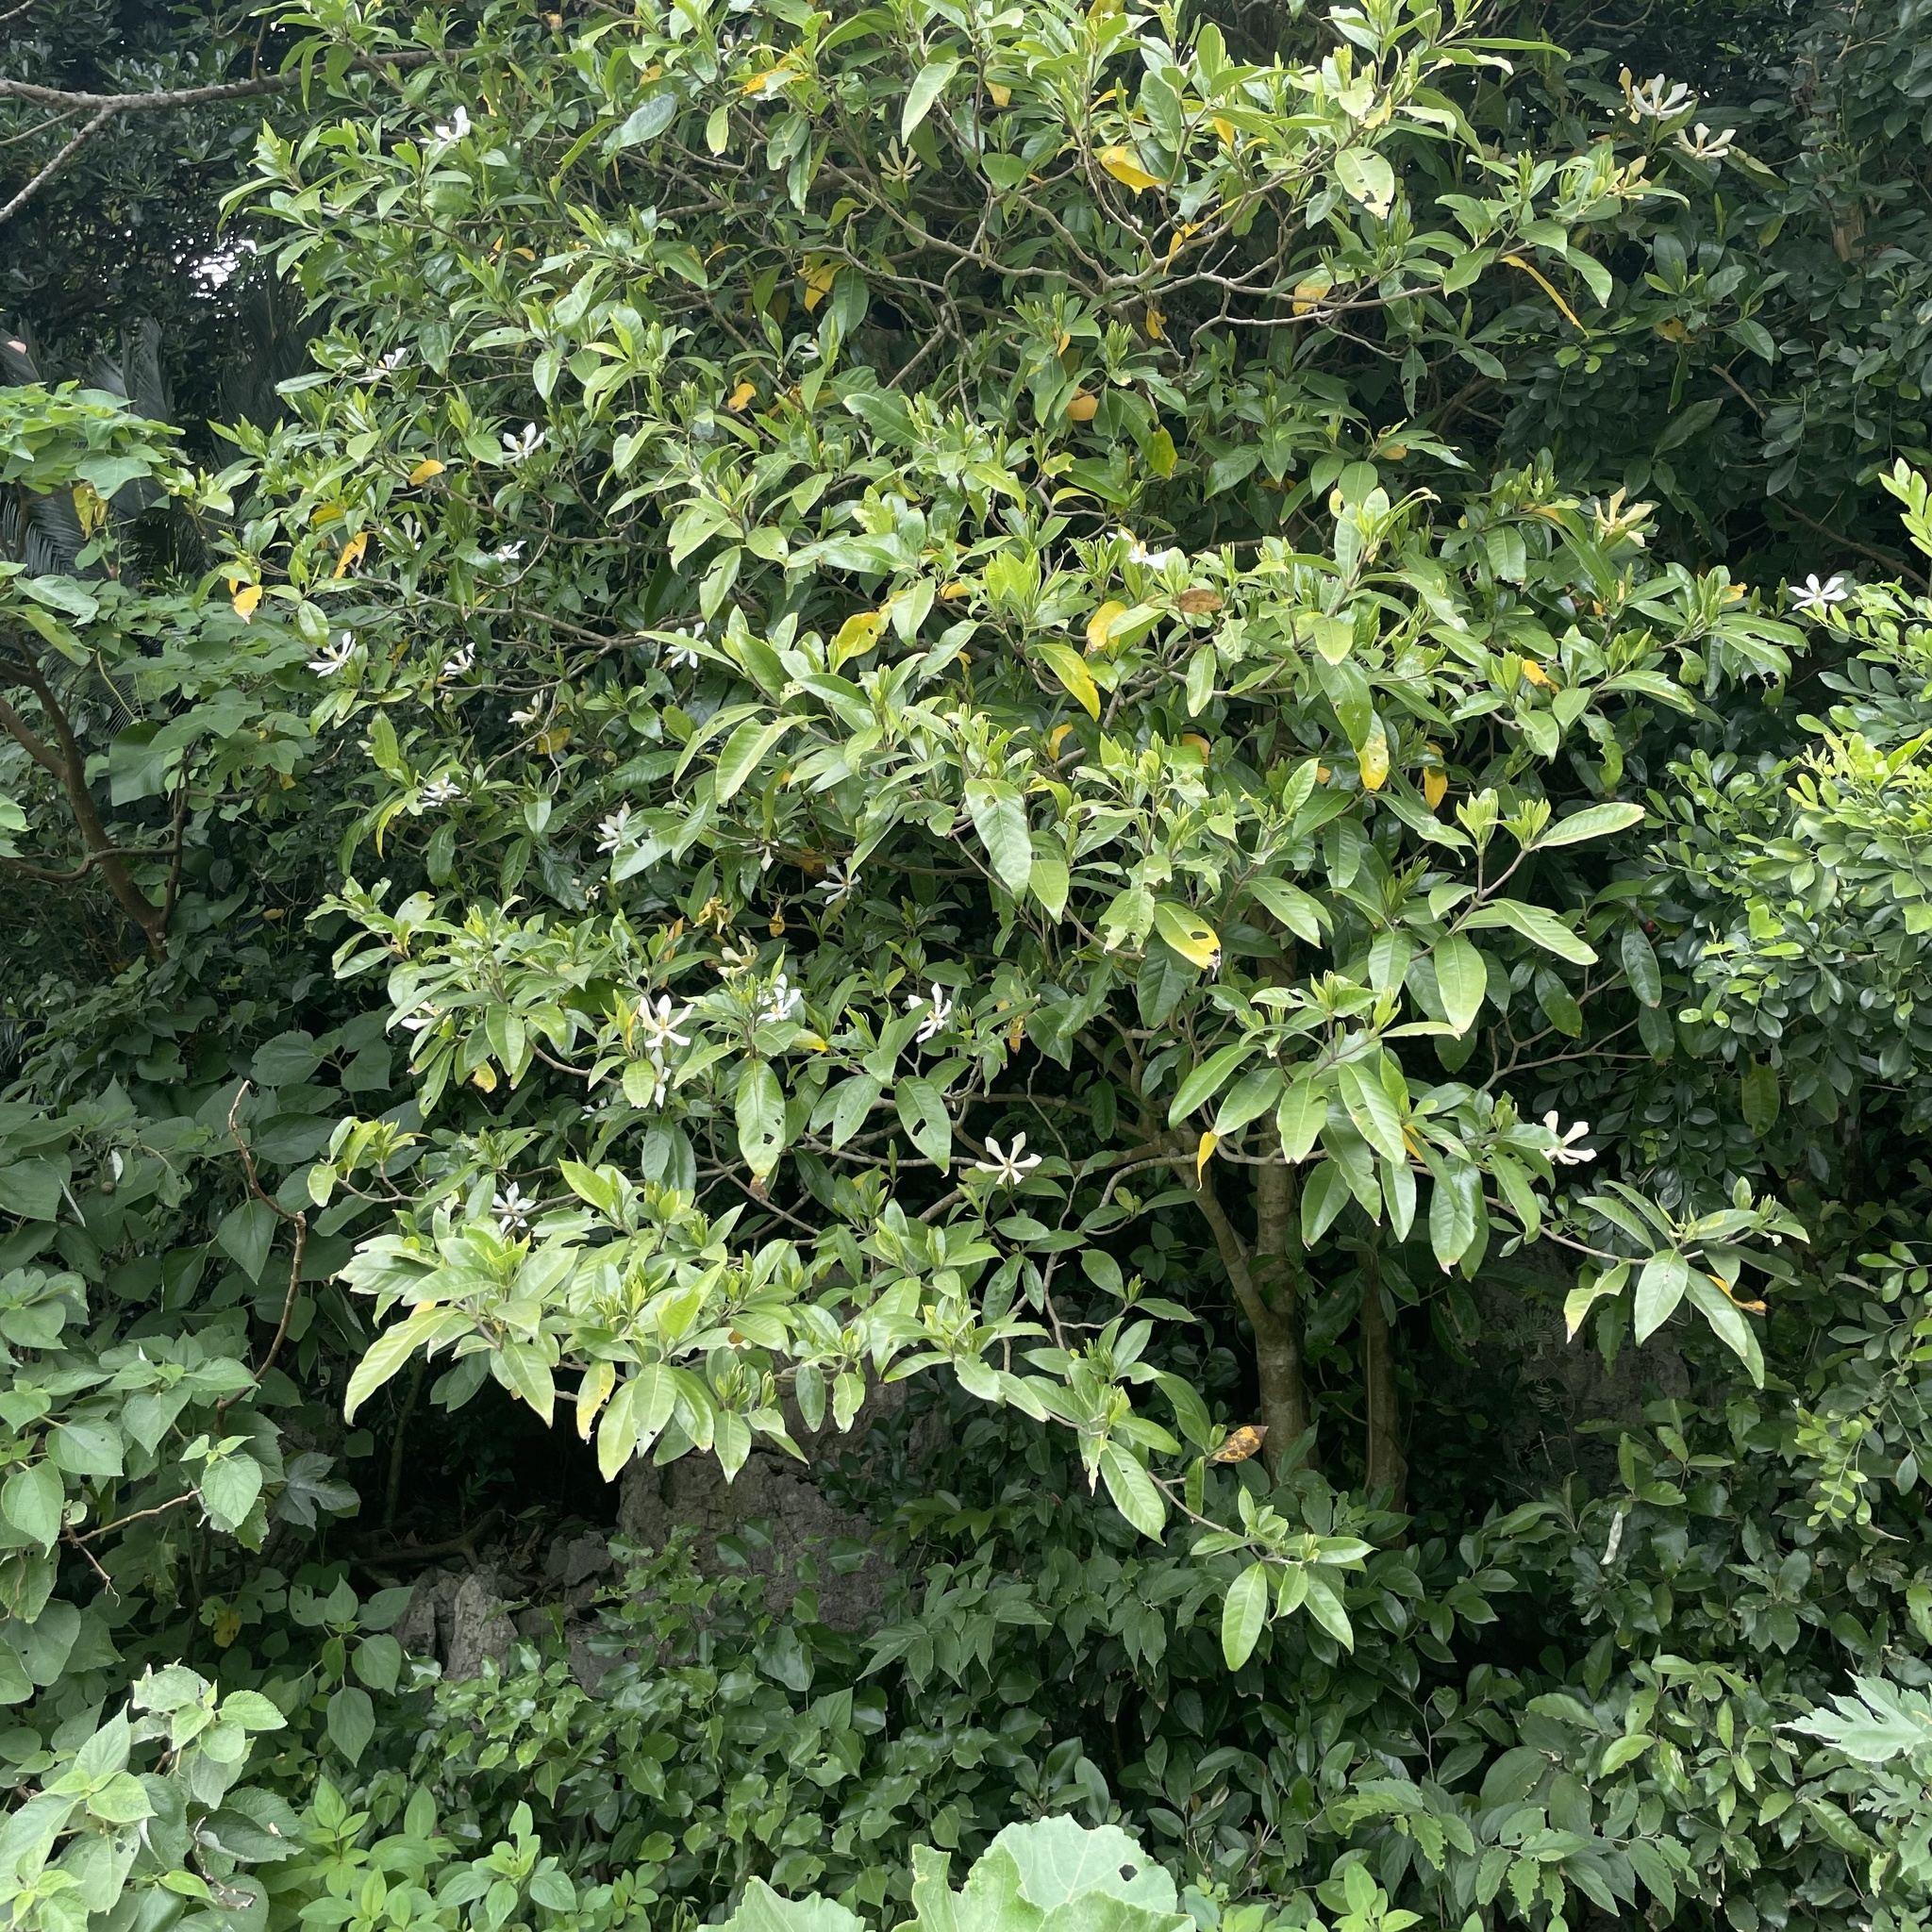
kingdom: Plantae
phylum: Tracheophyta
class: Magnoliopsida
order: Gentianales
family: Rubiaceae
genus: Gardenia
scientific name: Gardenia jasminoides
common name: Cape-jasmine
